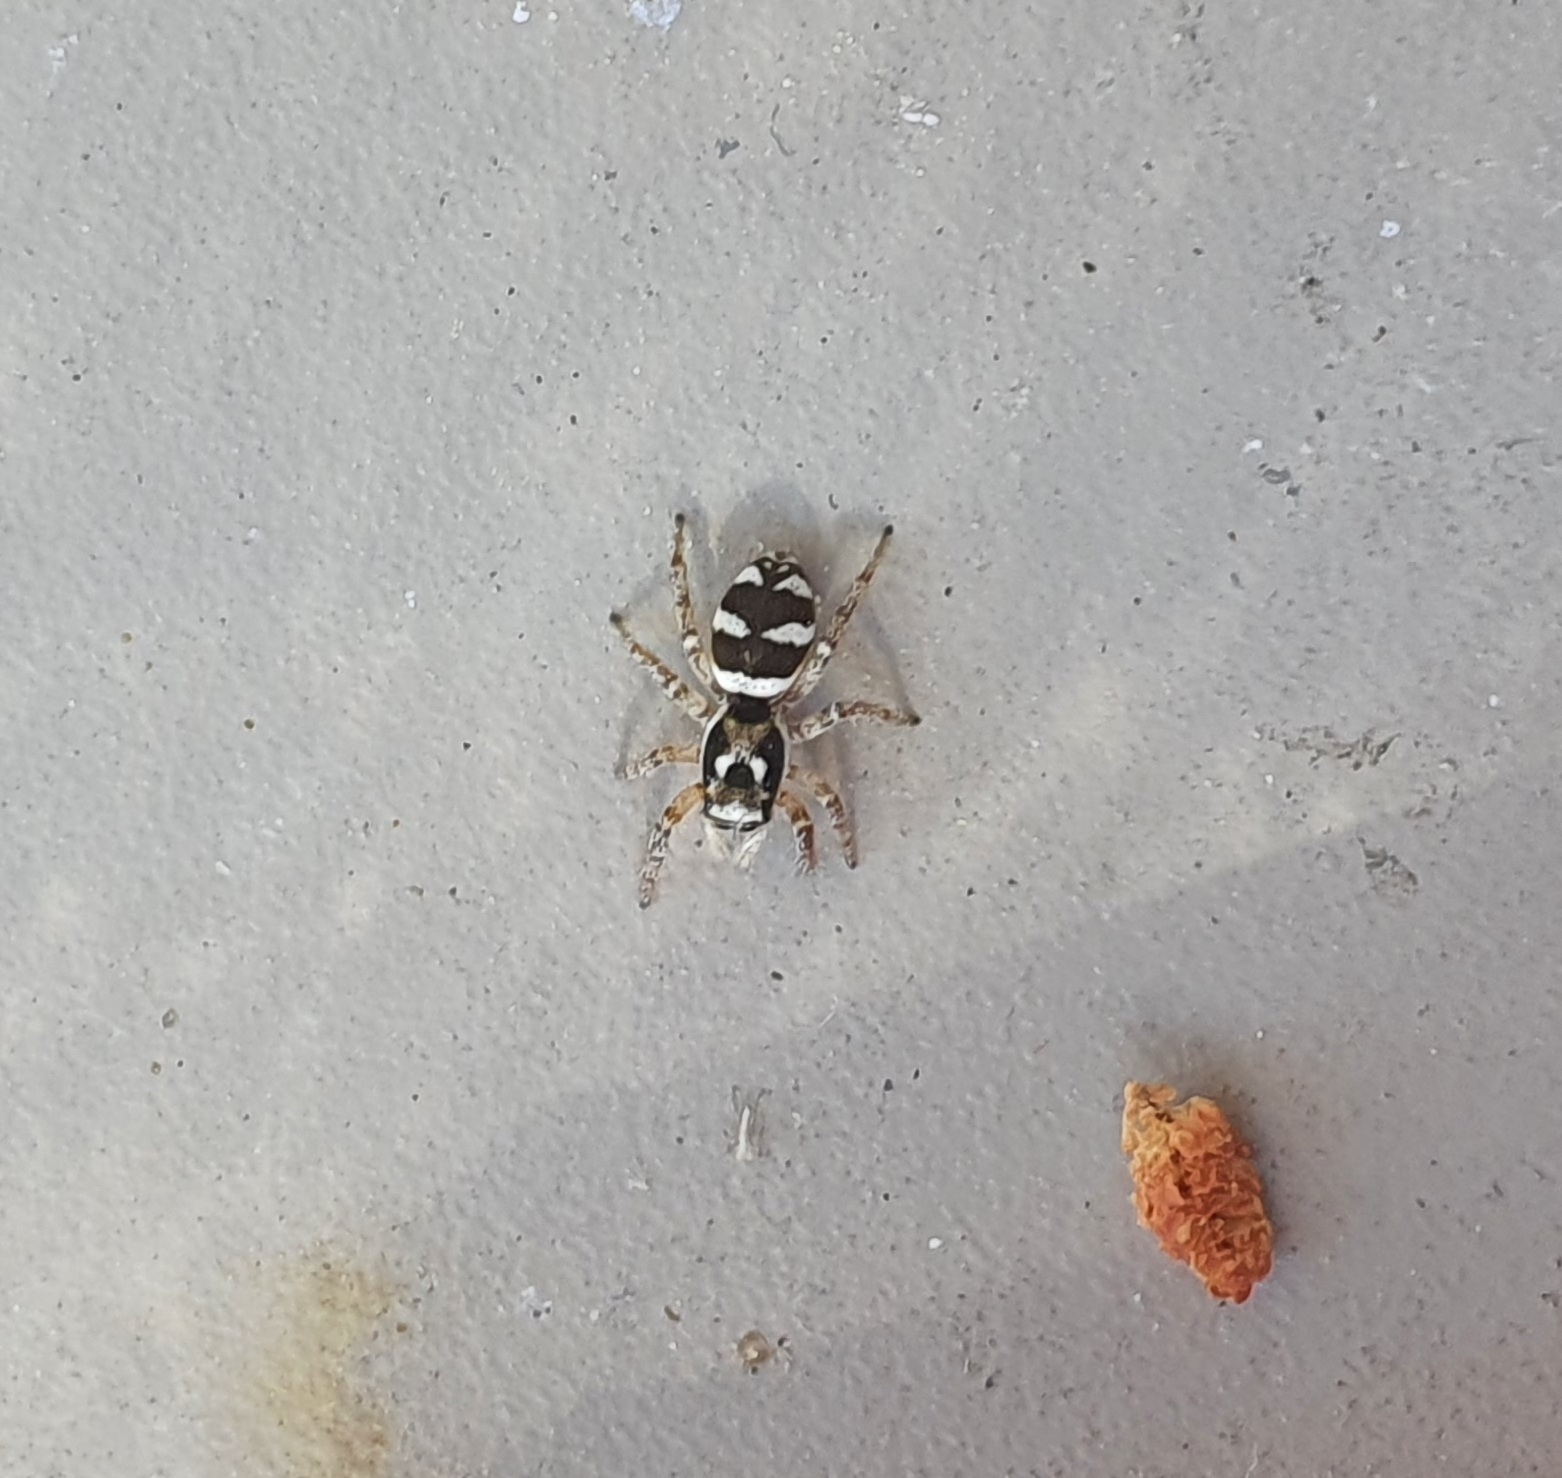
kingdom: Animalia
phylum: Arthropoda
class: Arachnida
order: Araneae
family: Salticidae
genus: Salticus
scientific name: Salticus scenicus
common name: Zebra jumper
